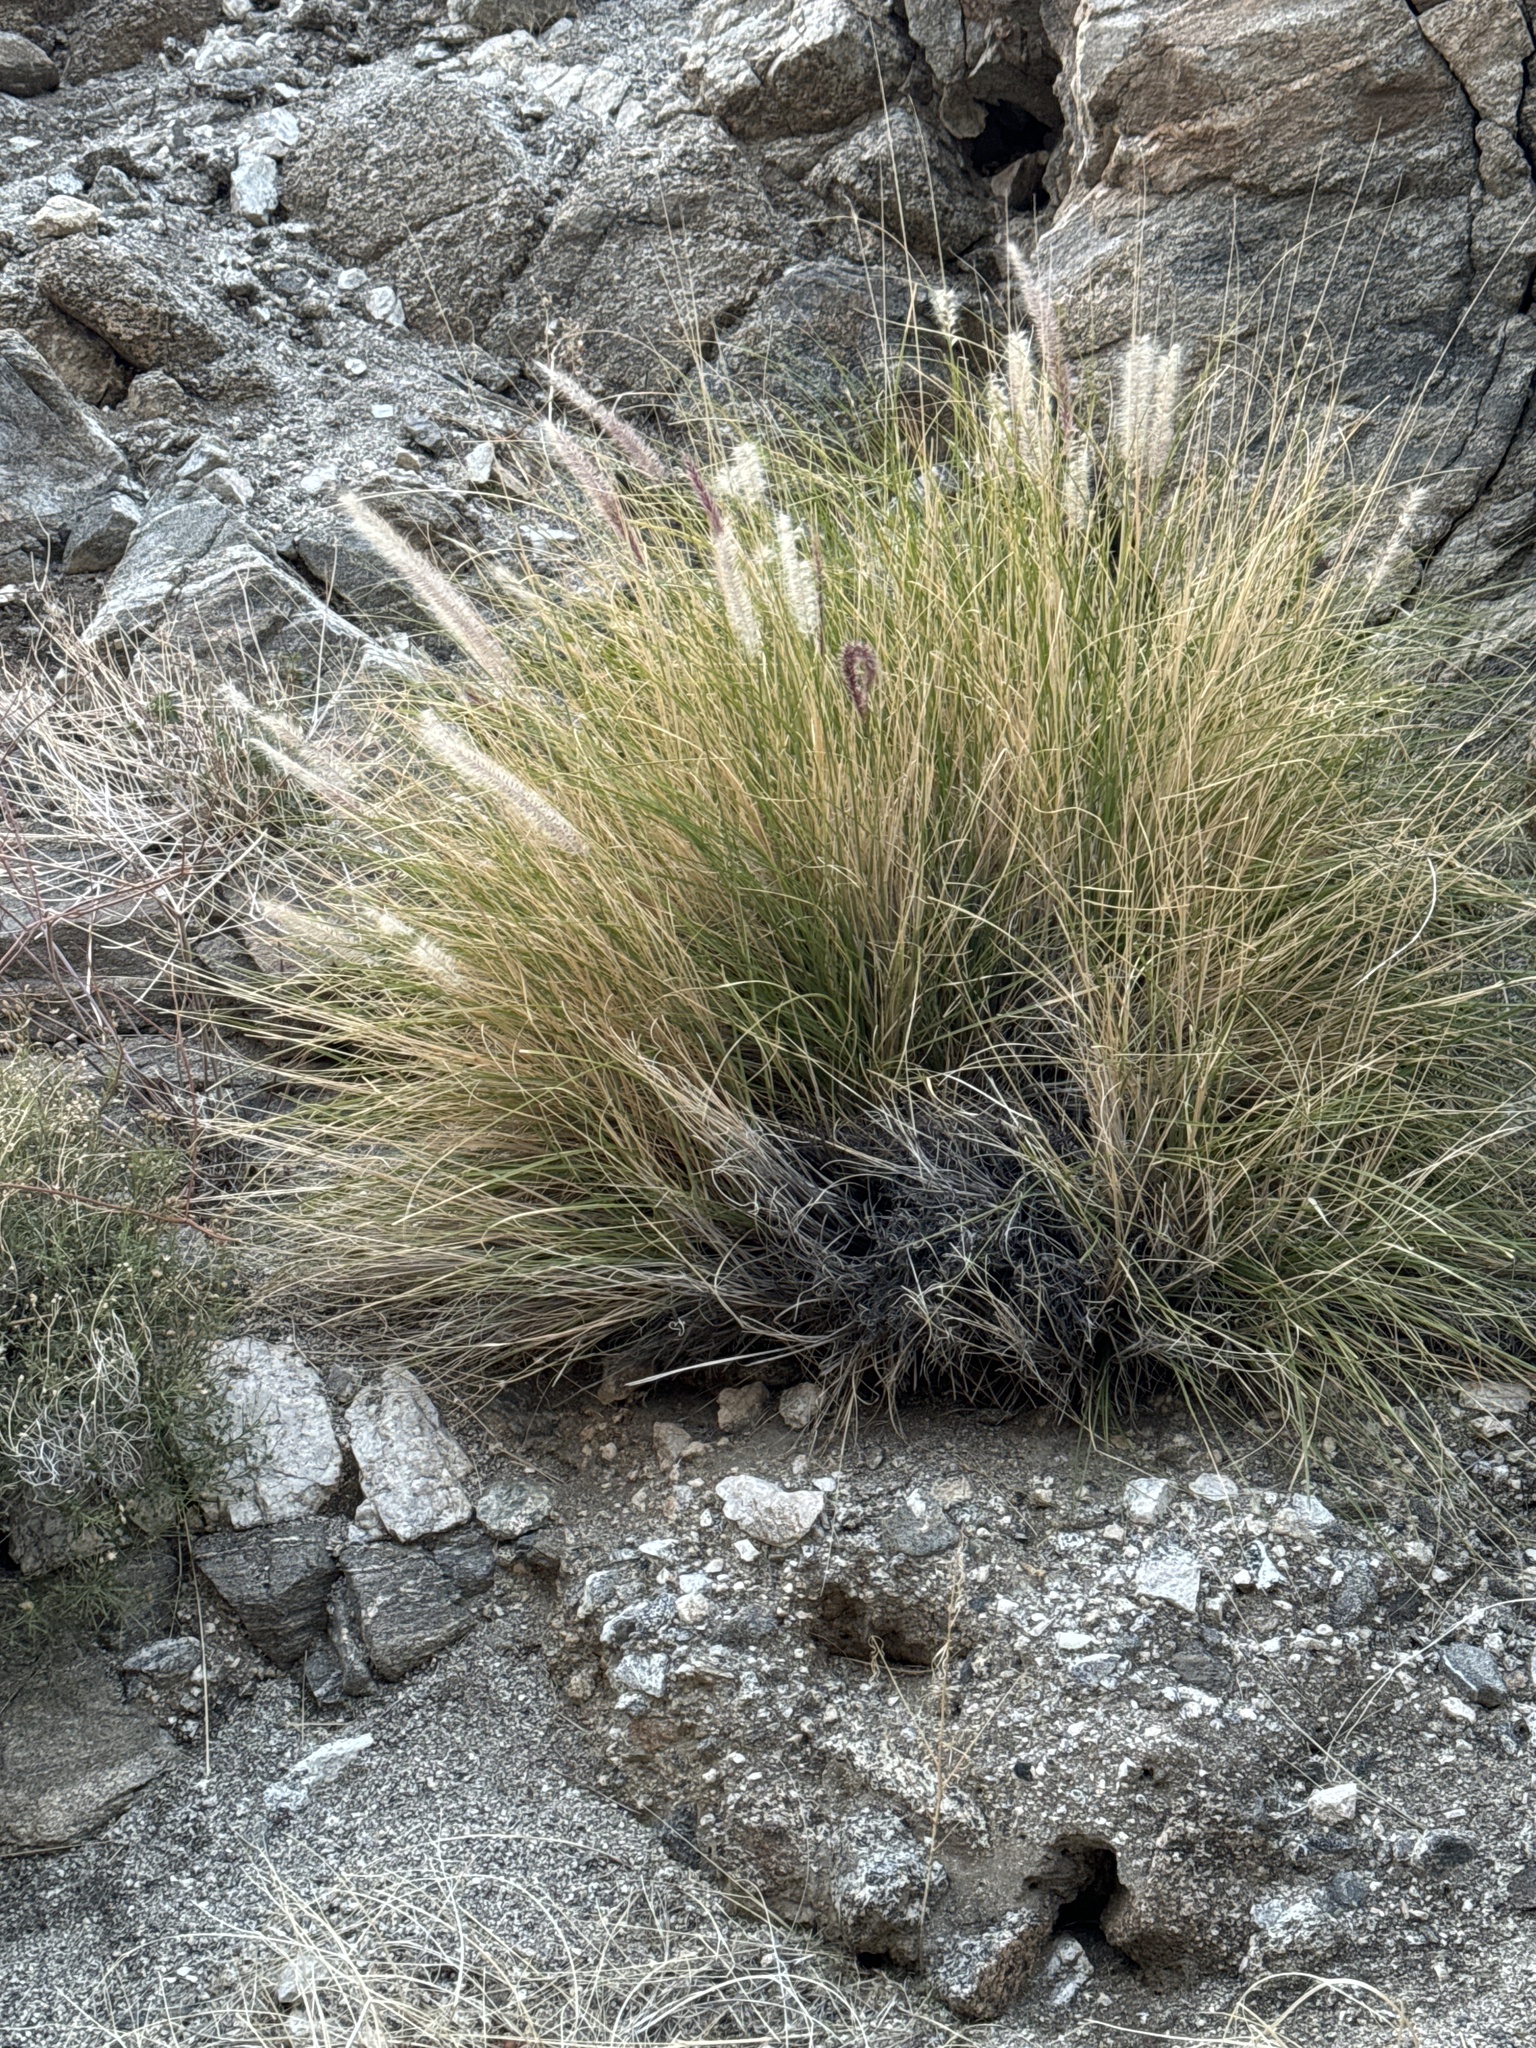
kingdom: Plantae
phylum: Tracheophyta
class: Liliopsida
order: Poales
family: Poaceae
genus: Cenchrus
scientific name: Cenchrus setaceus
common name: Crimson fountaingrass
